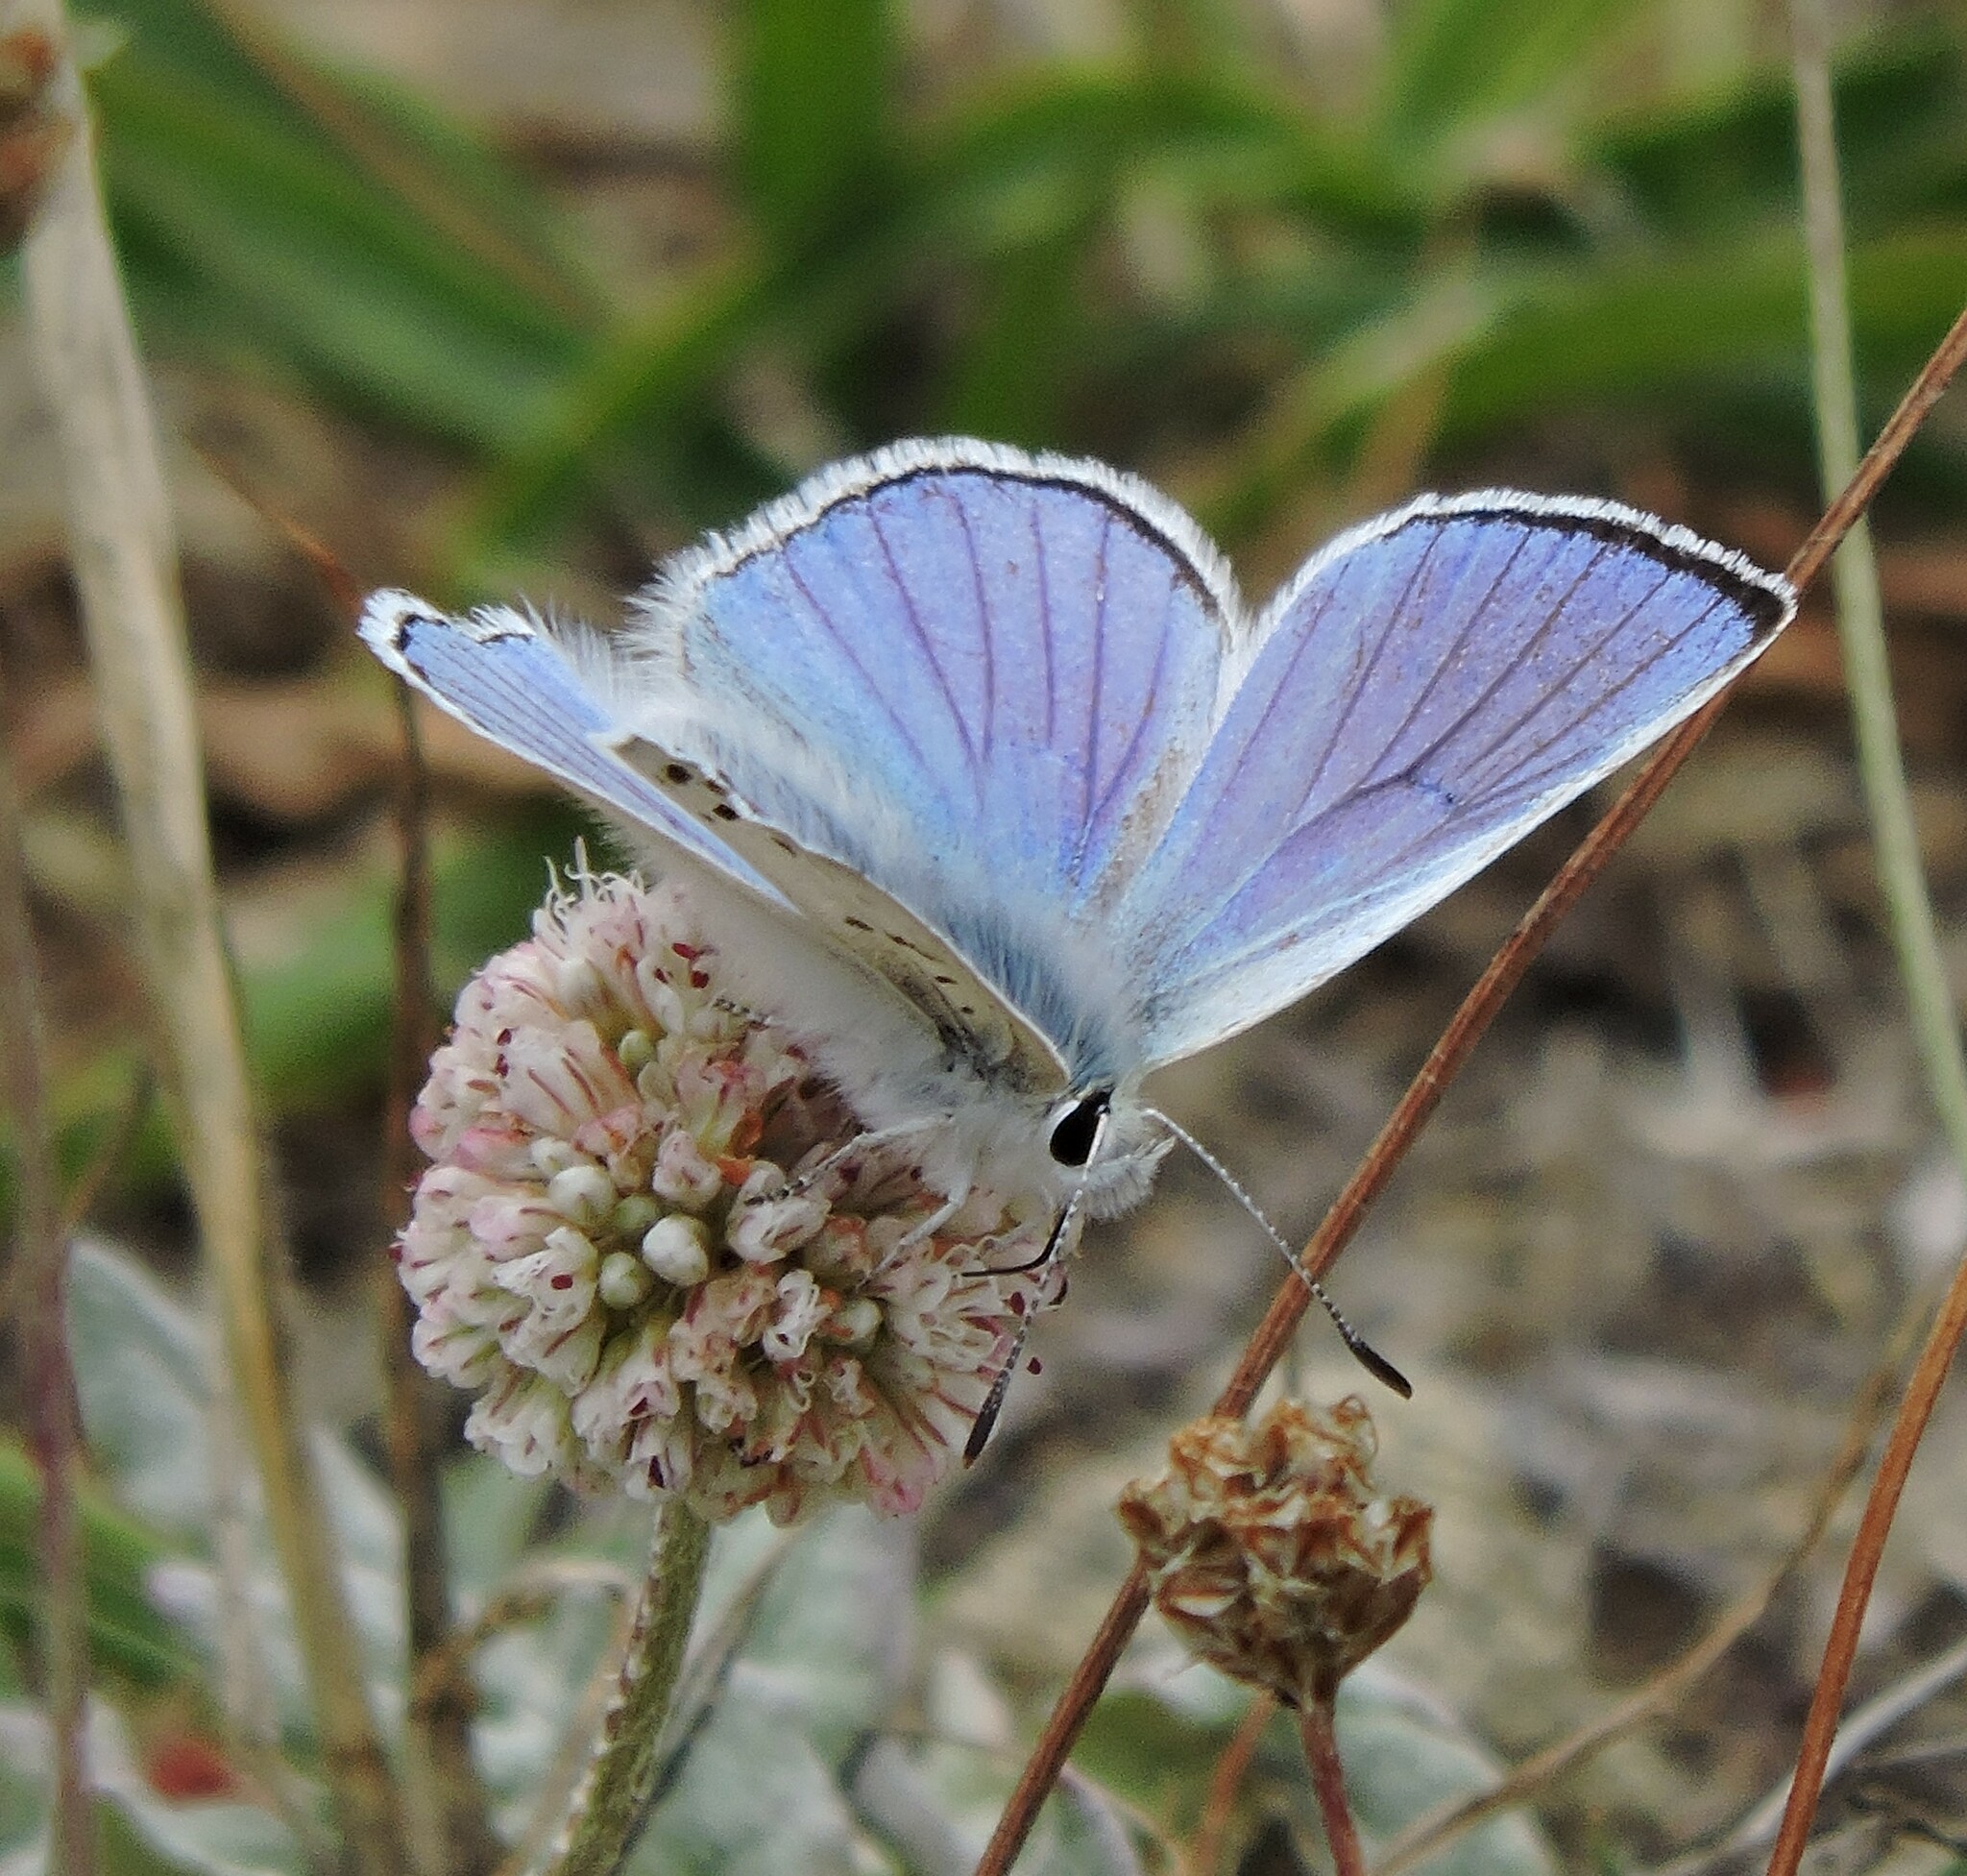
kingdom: Animalia
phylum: Arthropoda
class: Insecta
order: Lepidoptera
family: Lycaenidae
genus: Tharsalea
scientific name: Tharsalea heteronea
